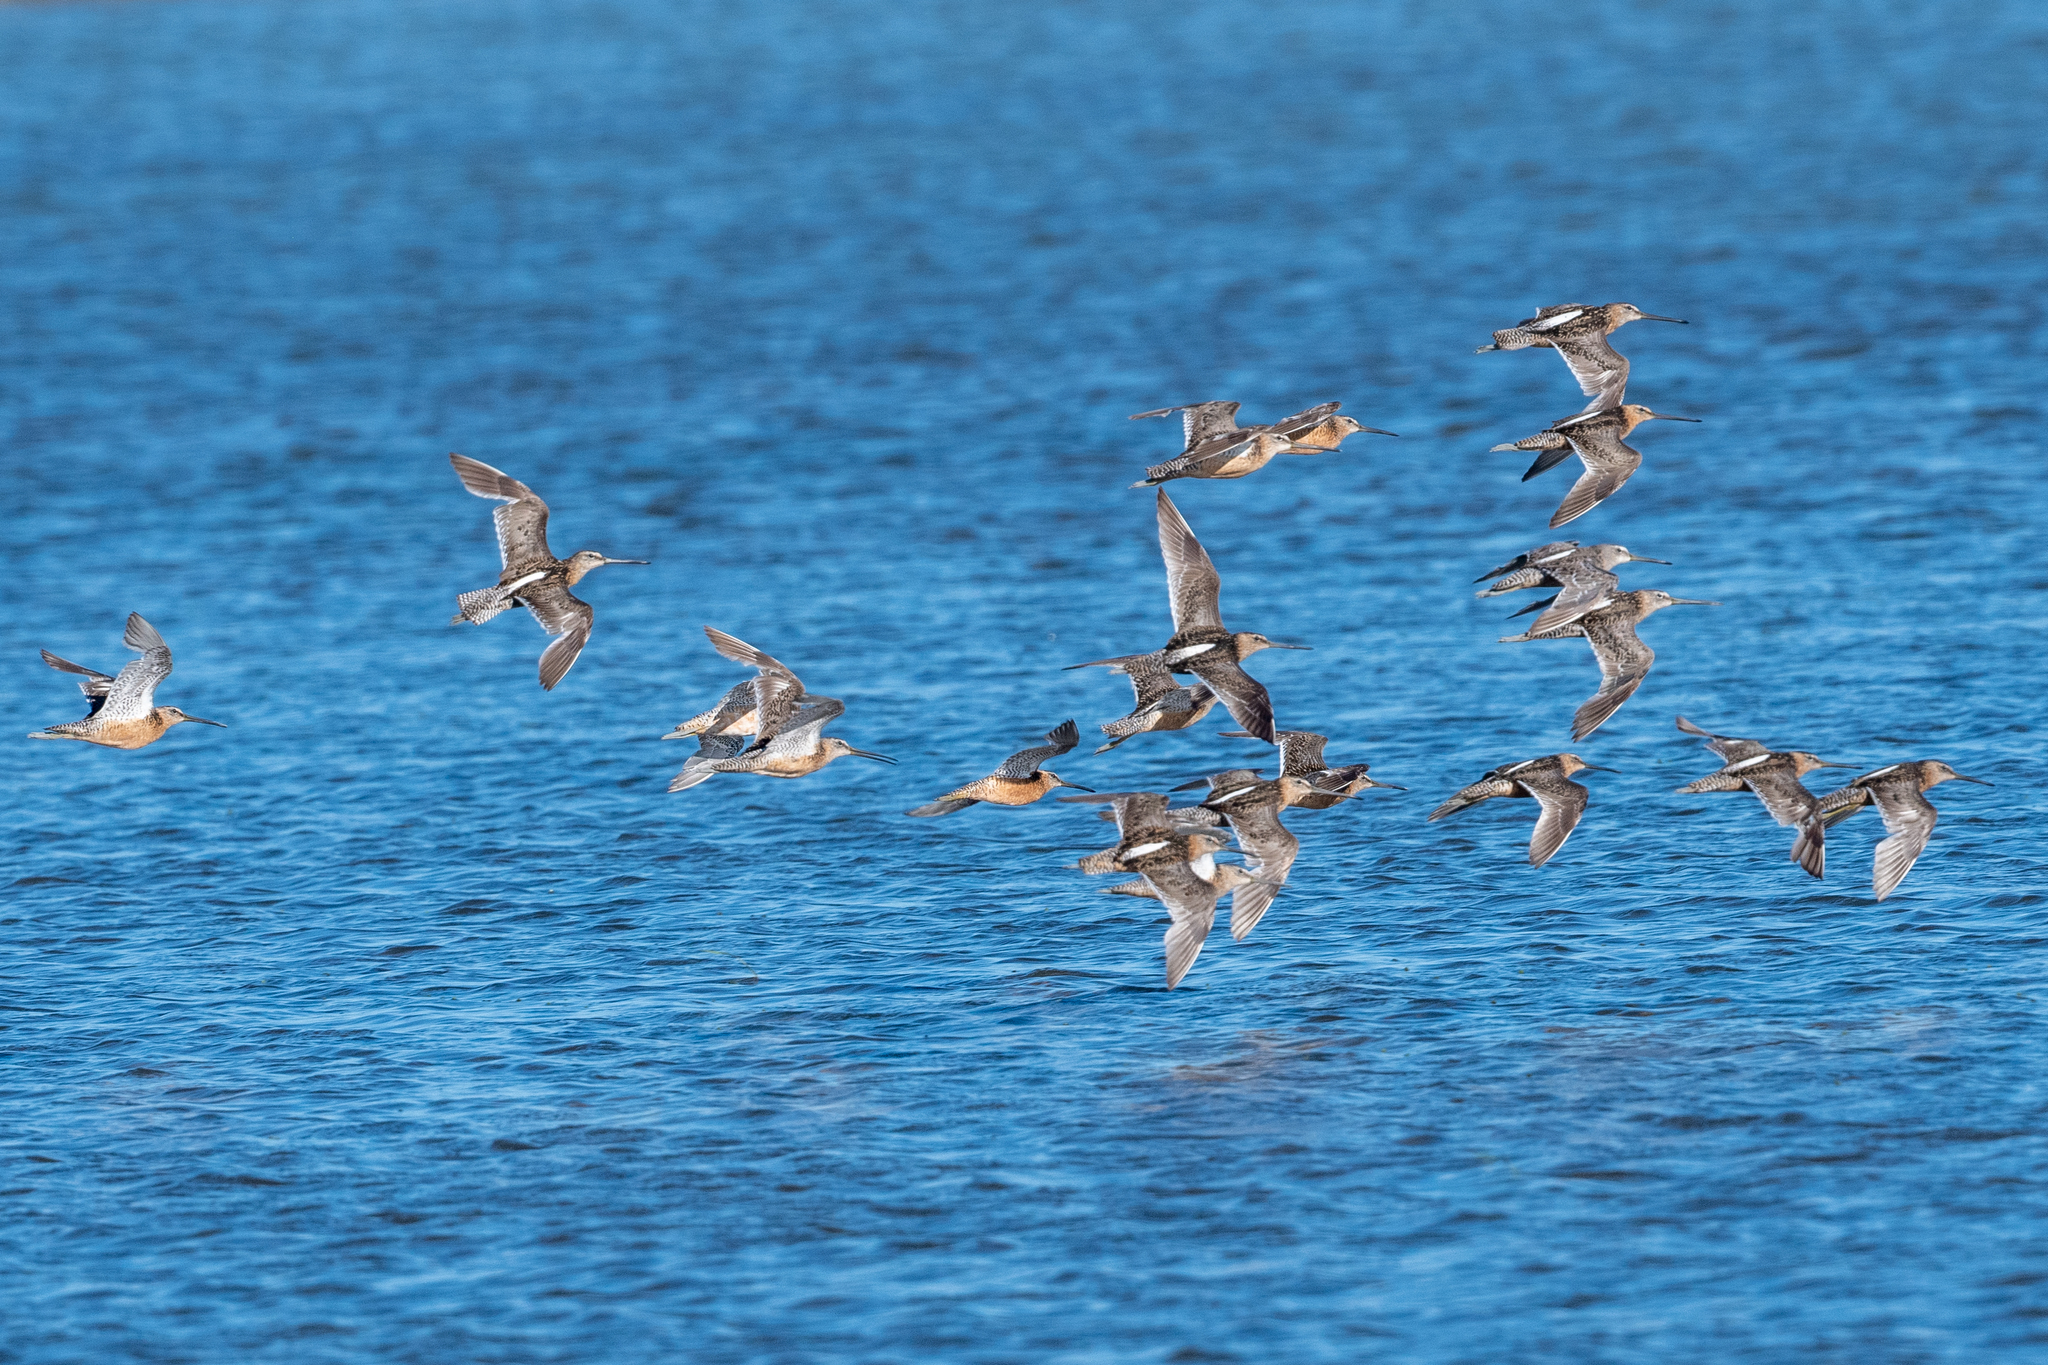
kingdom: Animalia
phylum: Chordata
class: Aves
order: Charadriiformes
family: Scolopacidae
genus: Limnodromus
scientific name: Limnodromus scolopaceus
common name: Long-billed dowitcher
